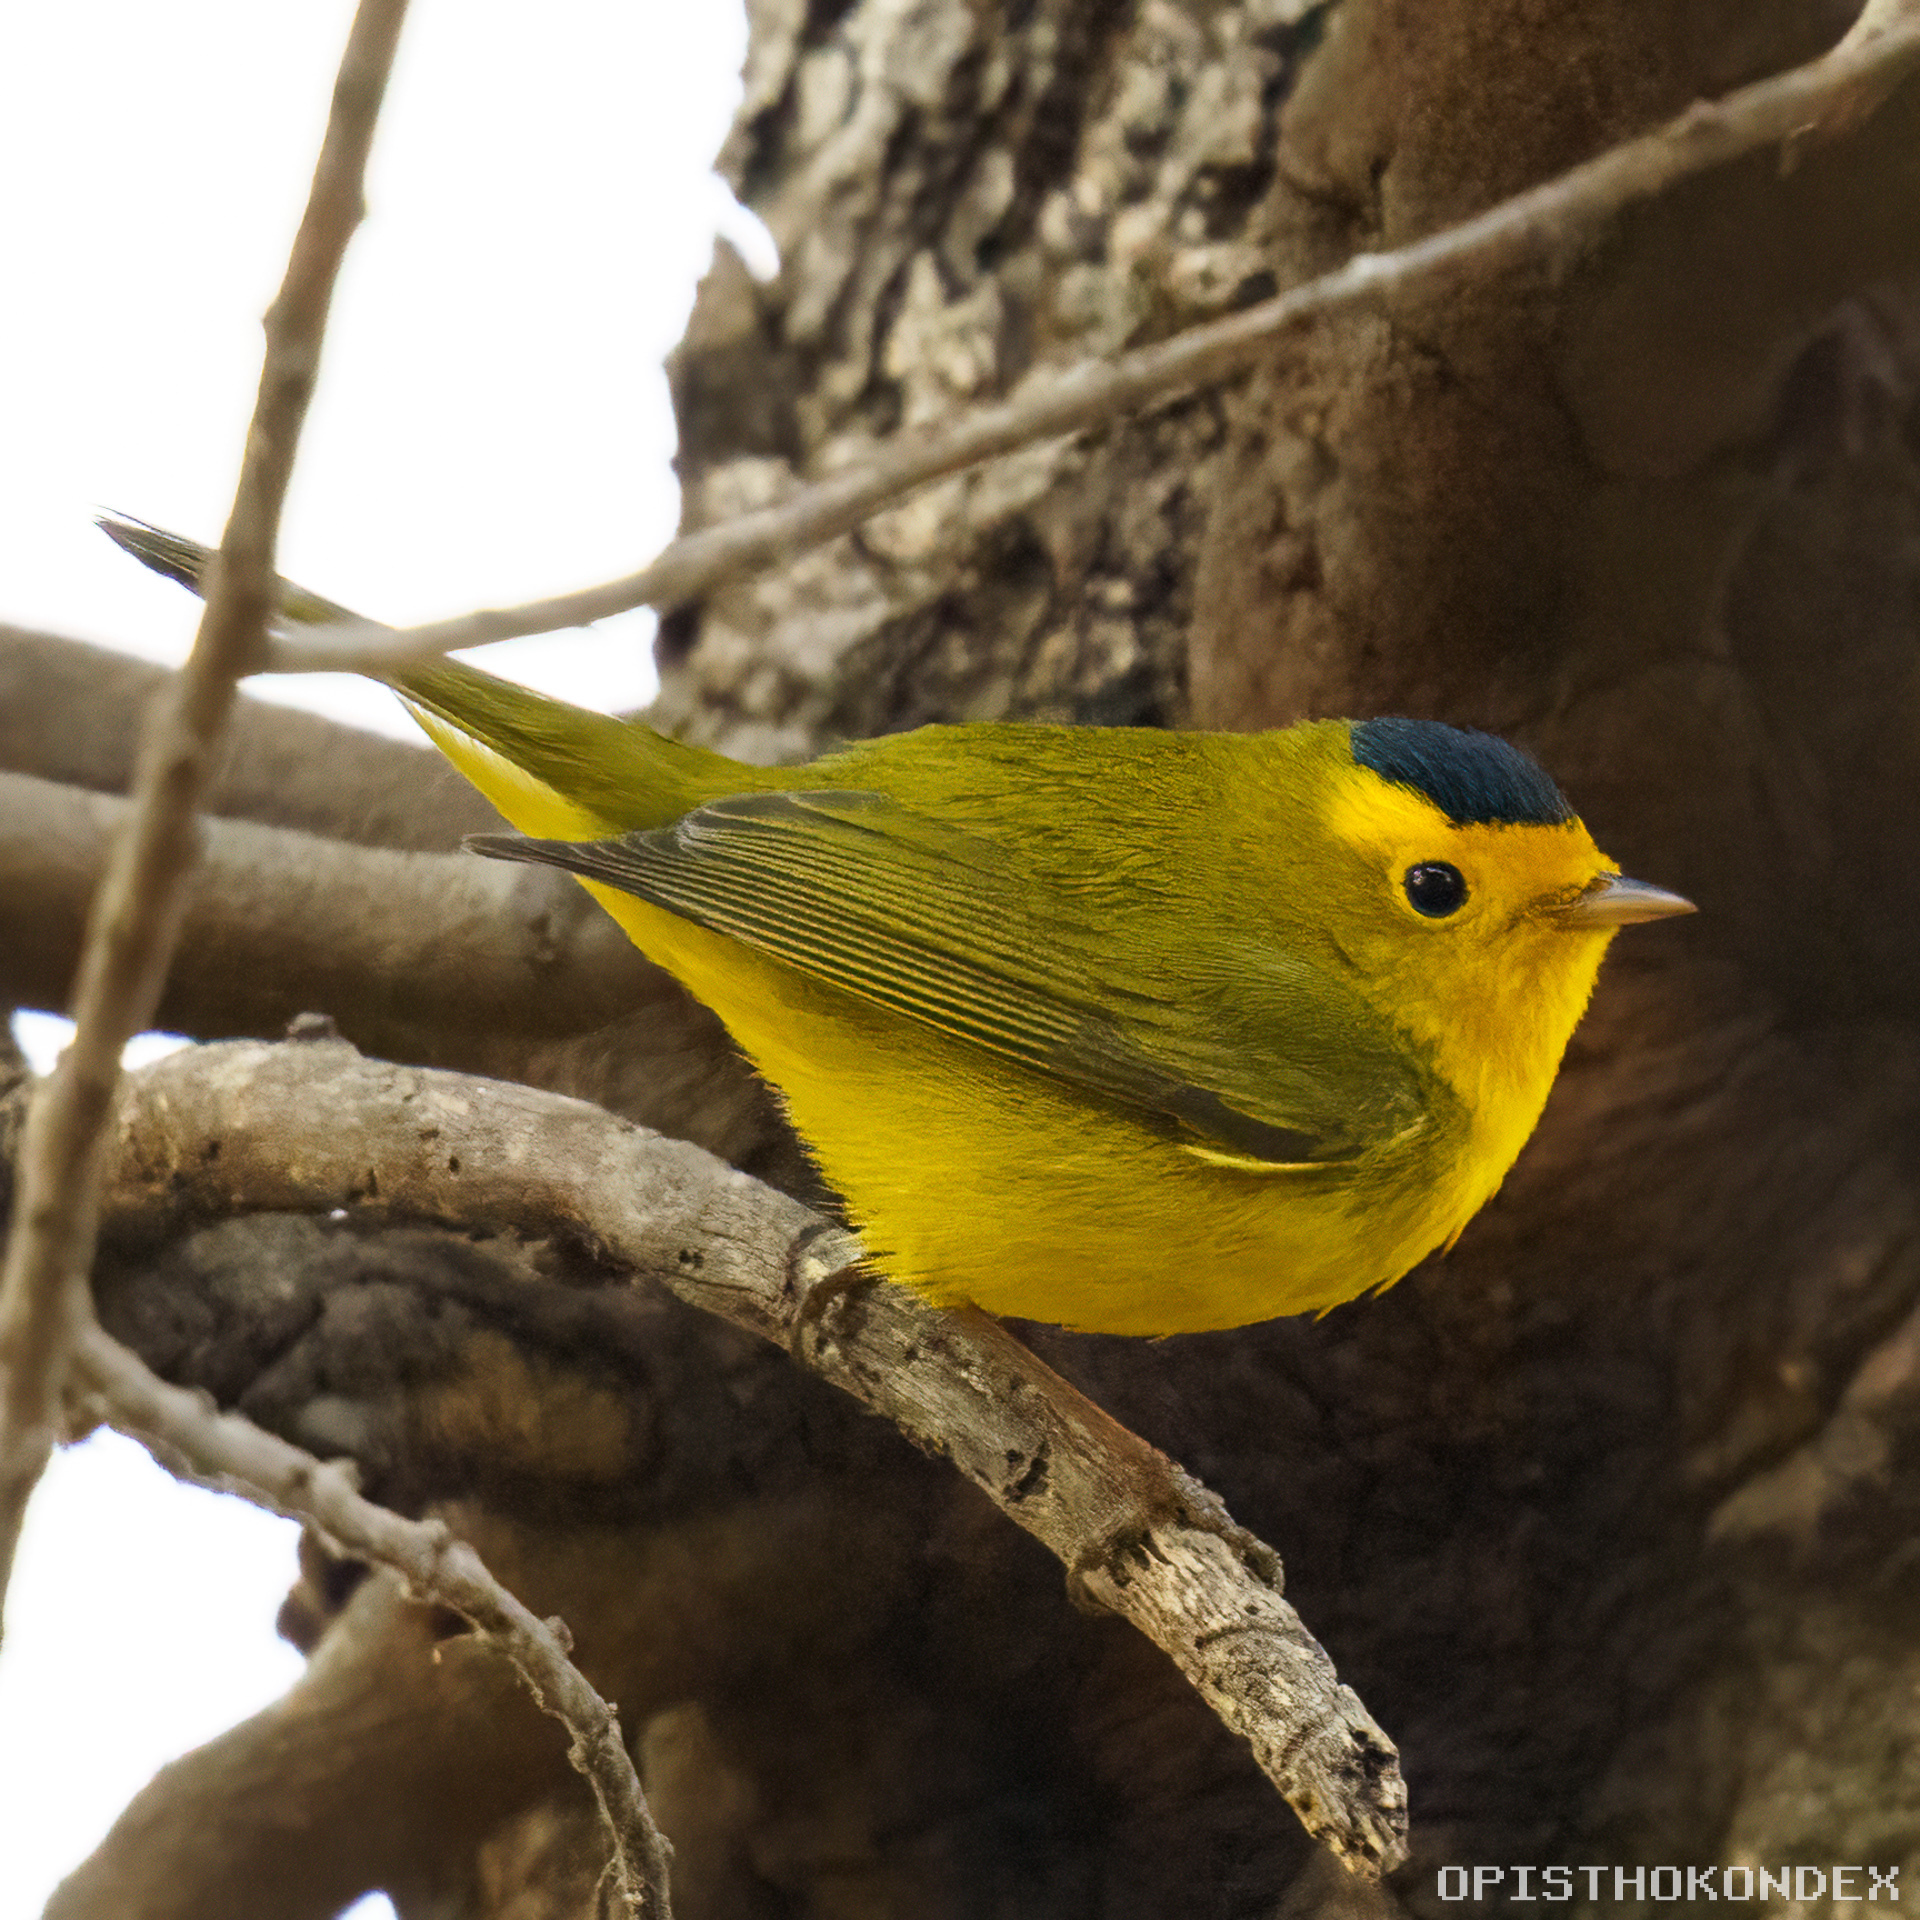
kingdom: Animalia
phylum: Chordata
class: Aves
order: Passeriformes
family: Parulidae
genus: Cardellina
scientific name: Cardellina pusilla
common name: Wilson's warbler
